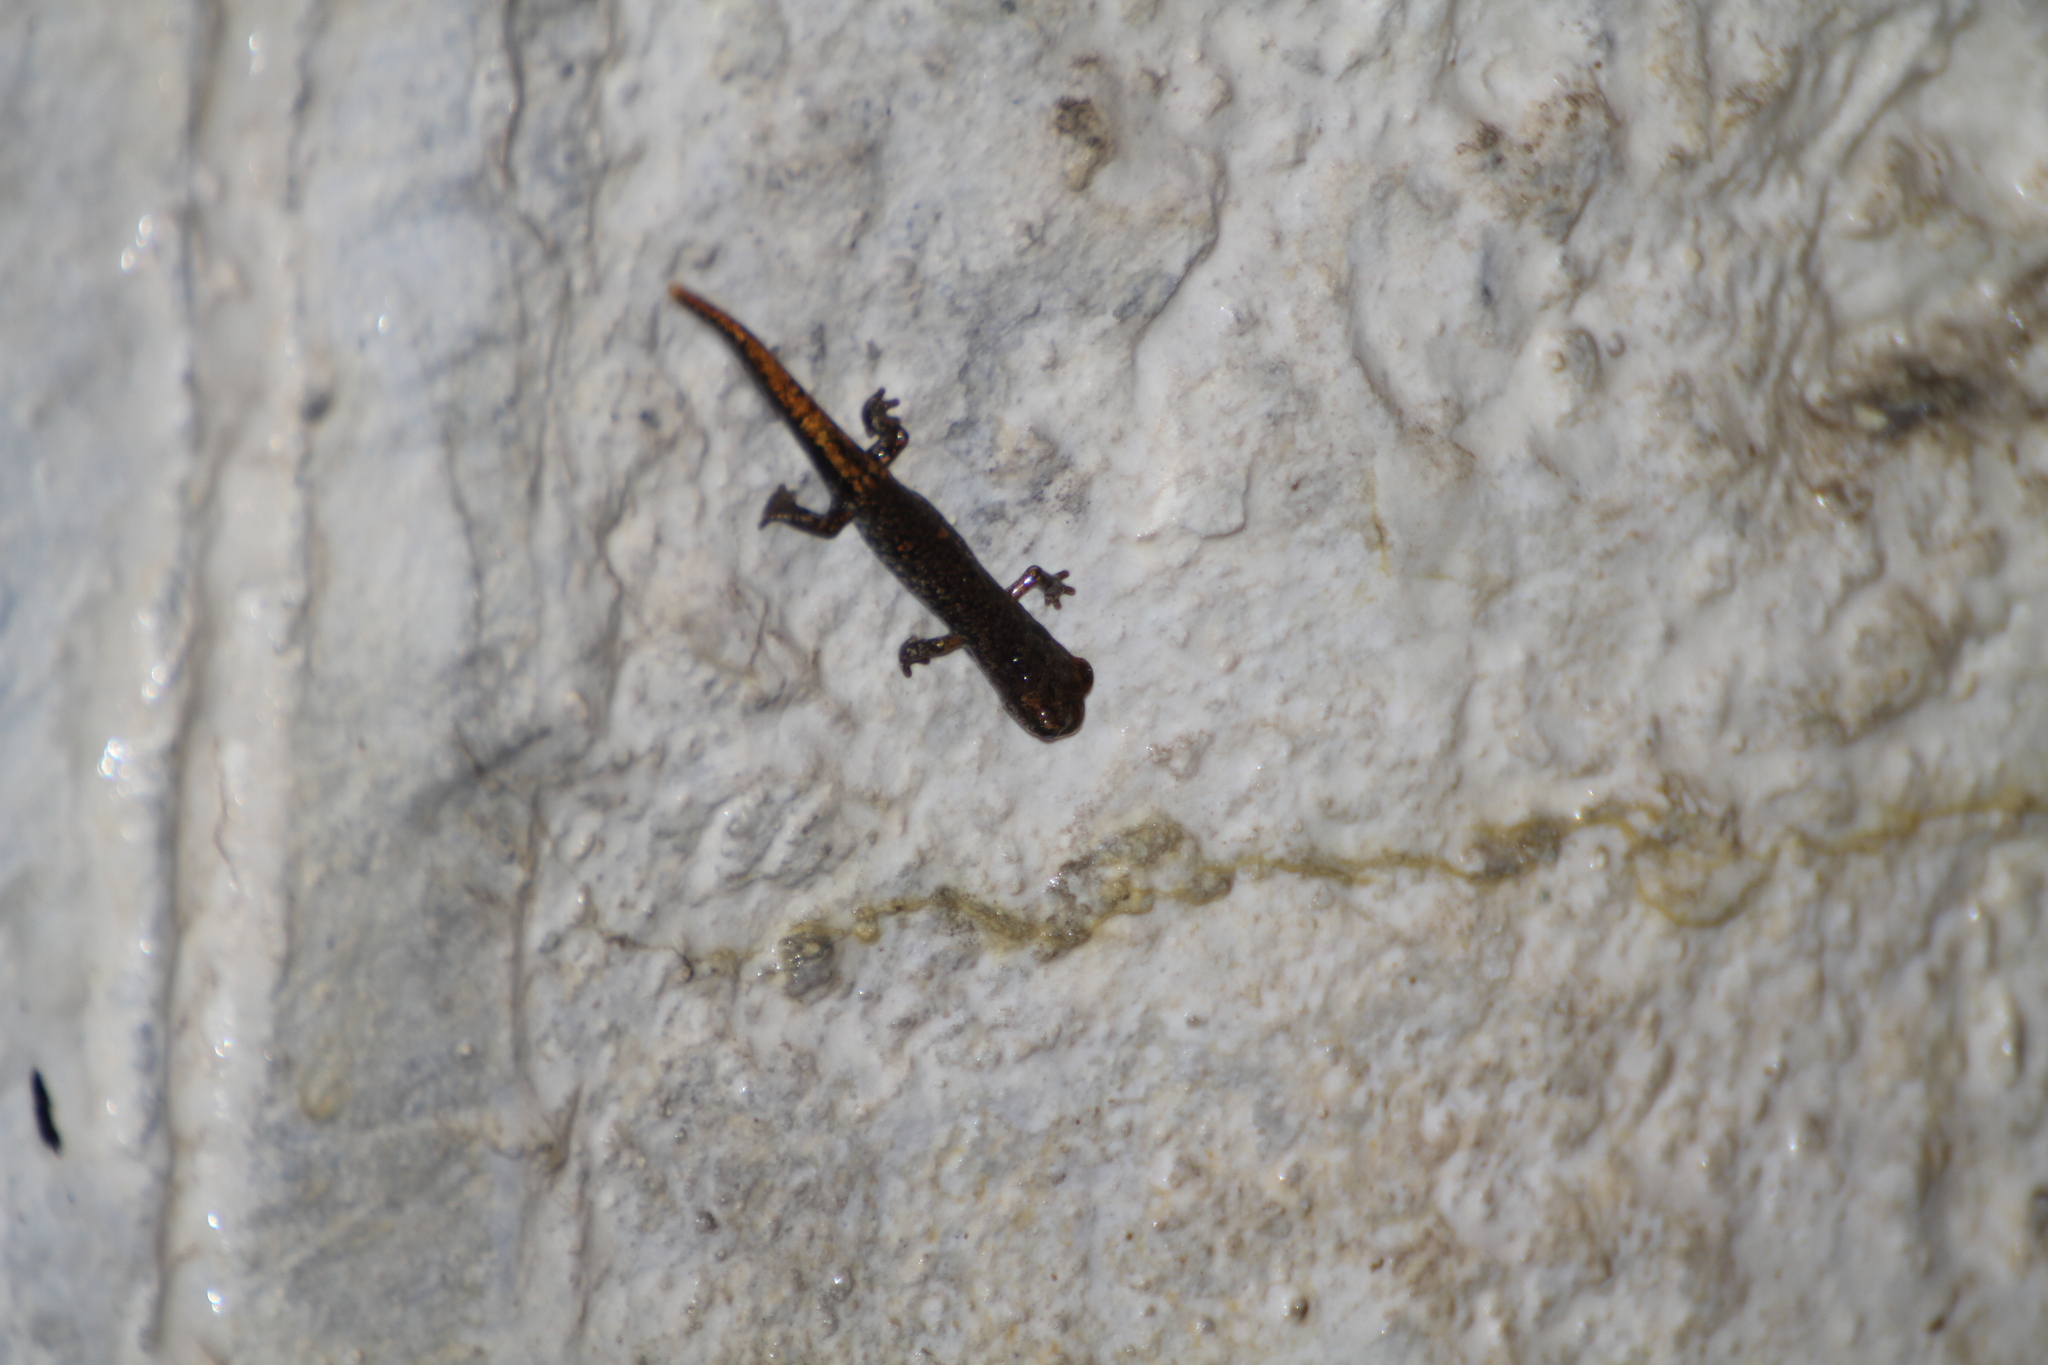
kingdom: Animalia
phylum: Chordata
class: Amphibia
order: Caudata
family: Plethodontidae
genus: Speleomantes
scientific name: Speleomantes strinatii
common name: French cave salamander
